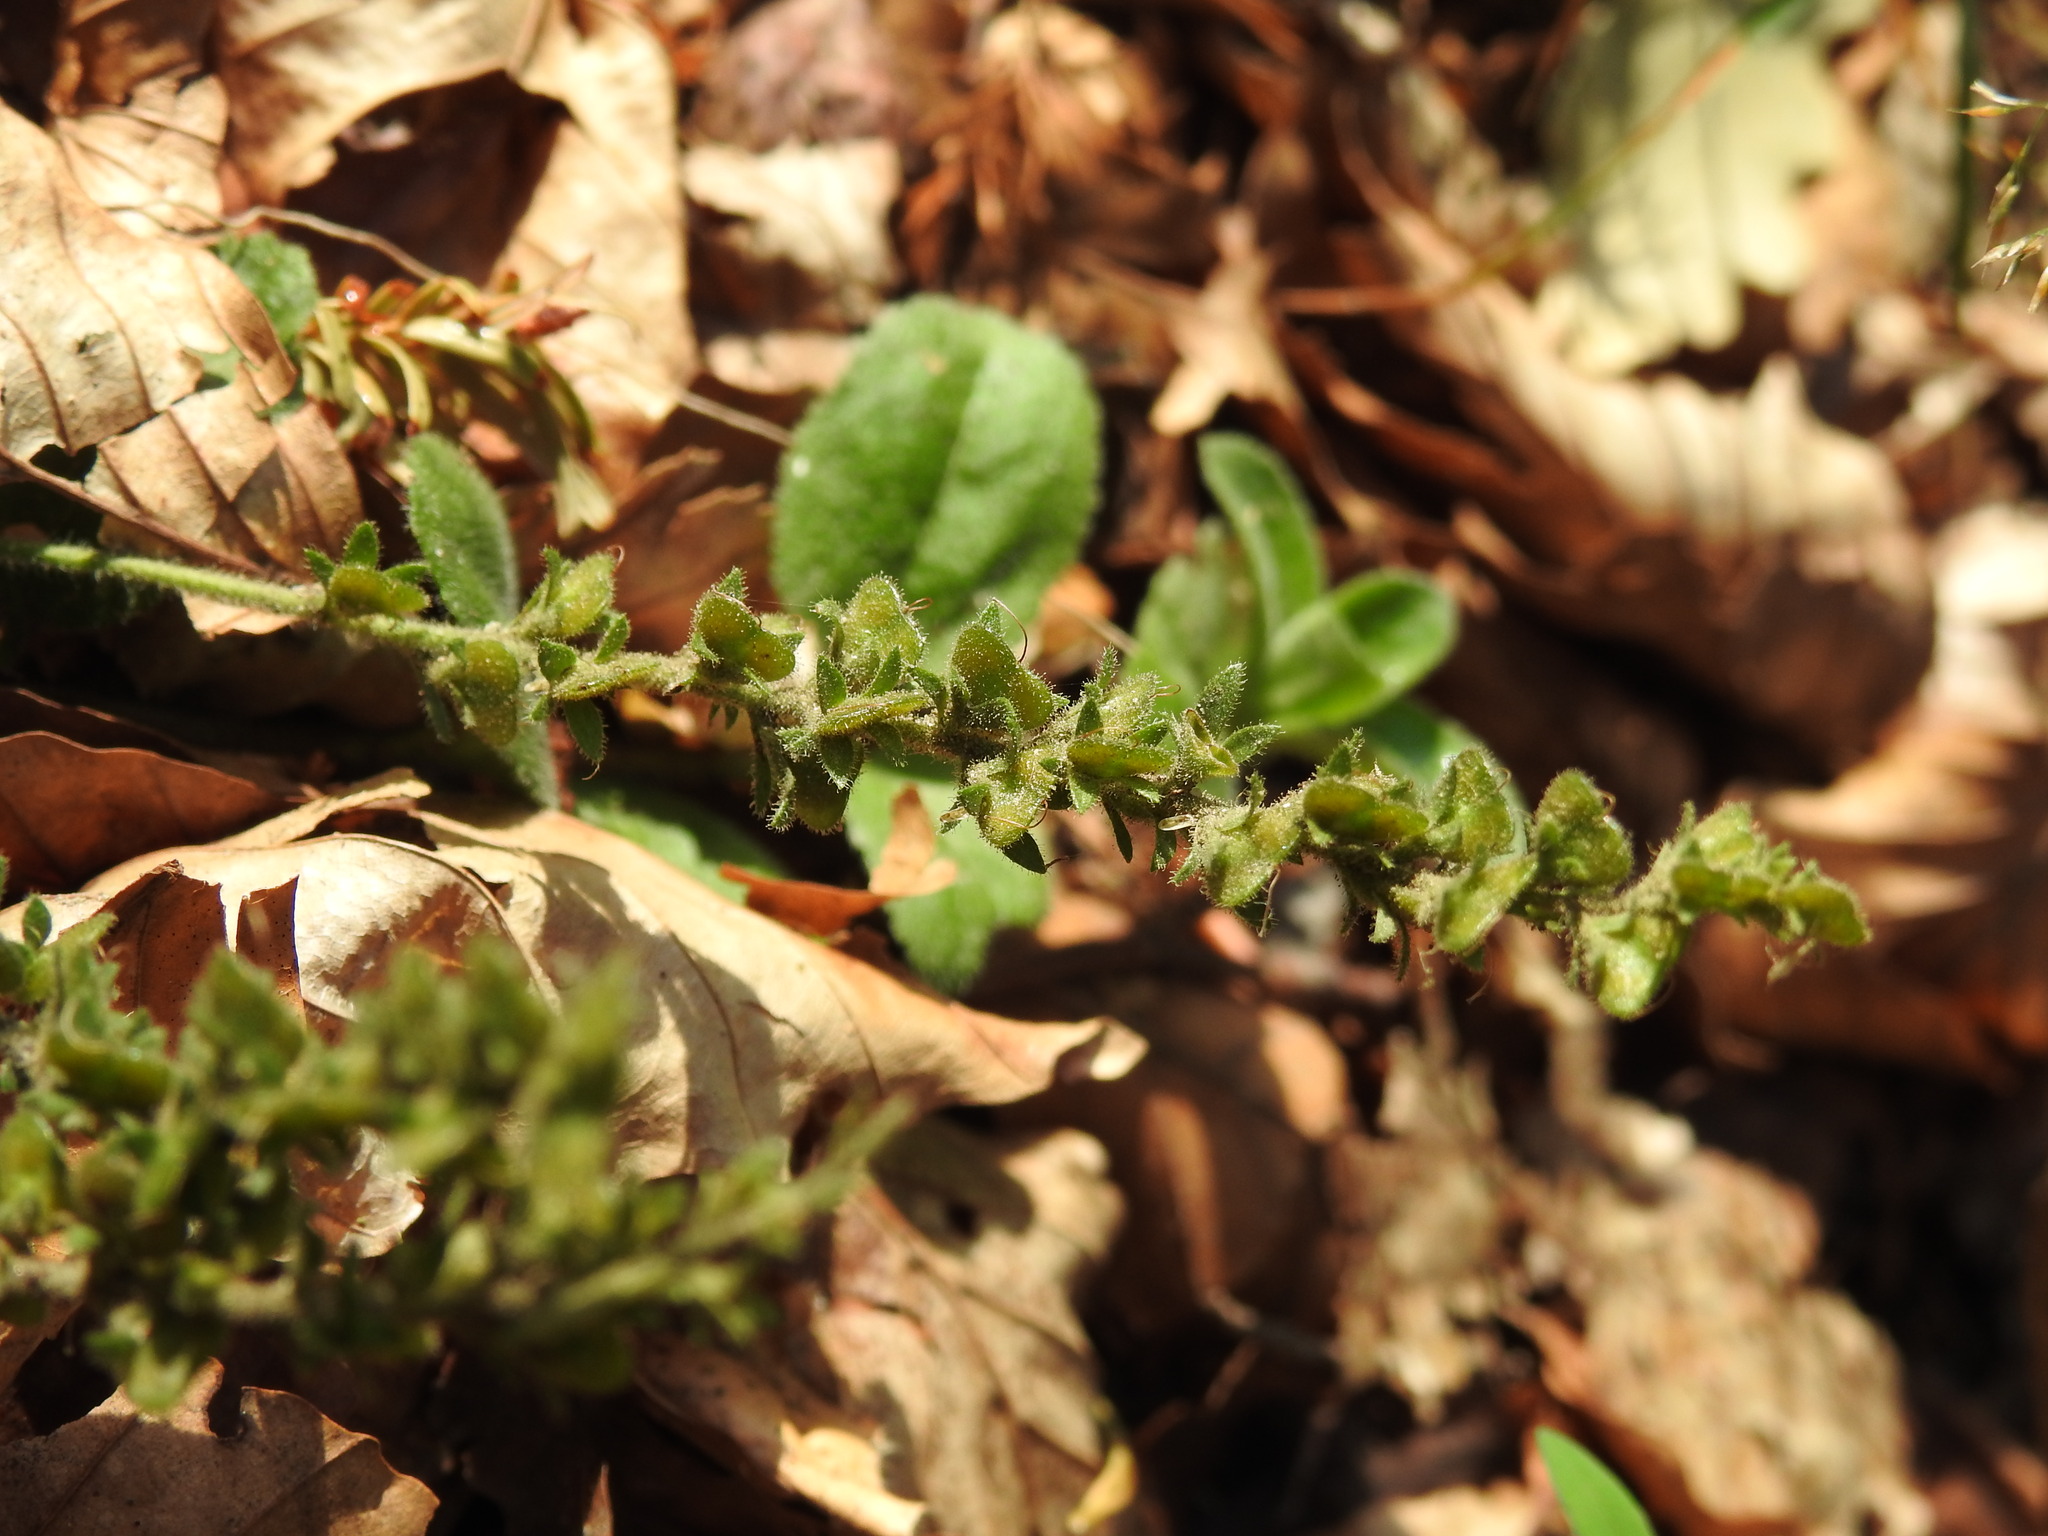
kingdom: Plantae
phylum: Tracheophyta
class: Magnoliopsida
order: Lamiales
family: Plantaginaceae
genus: Veronica
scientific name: Veronica officinalis
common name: Common speedwell
